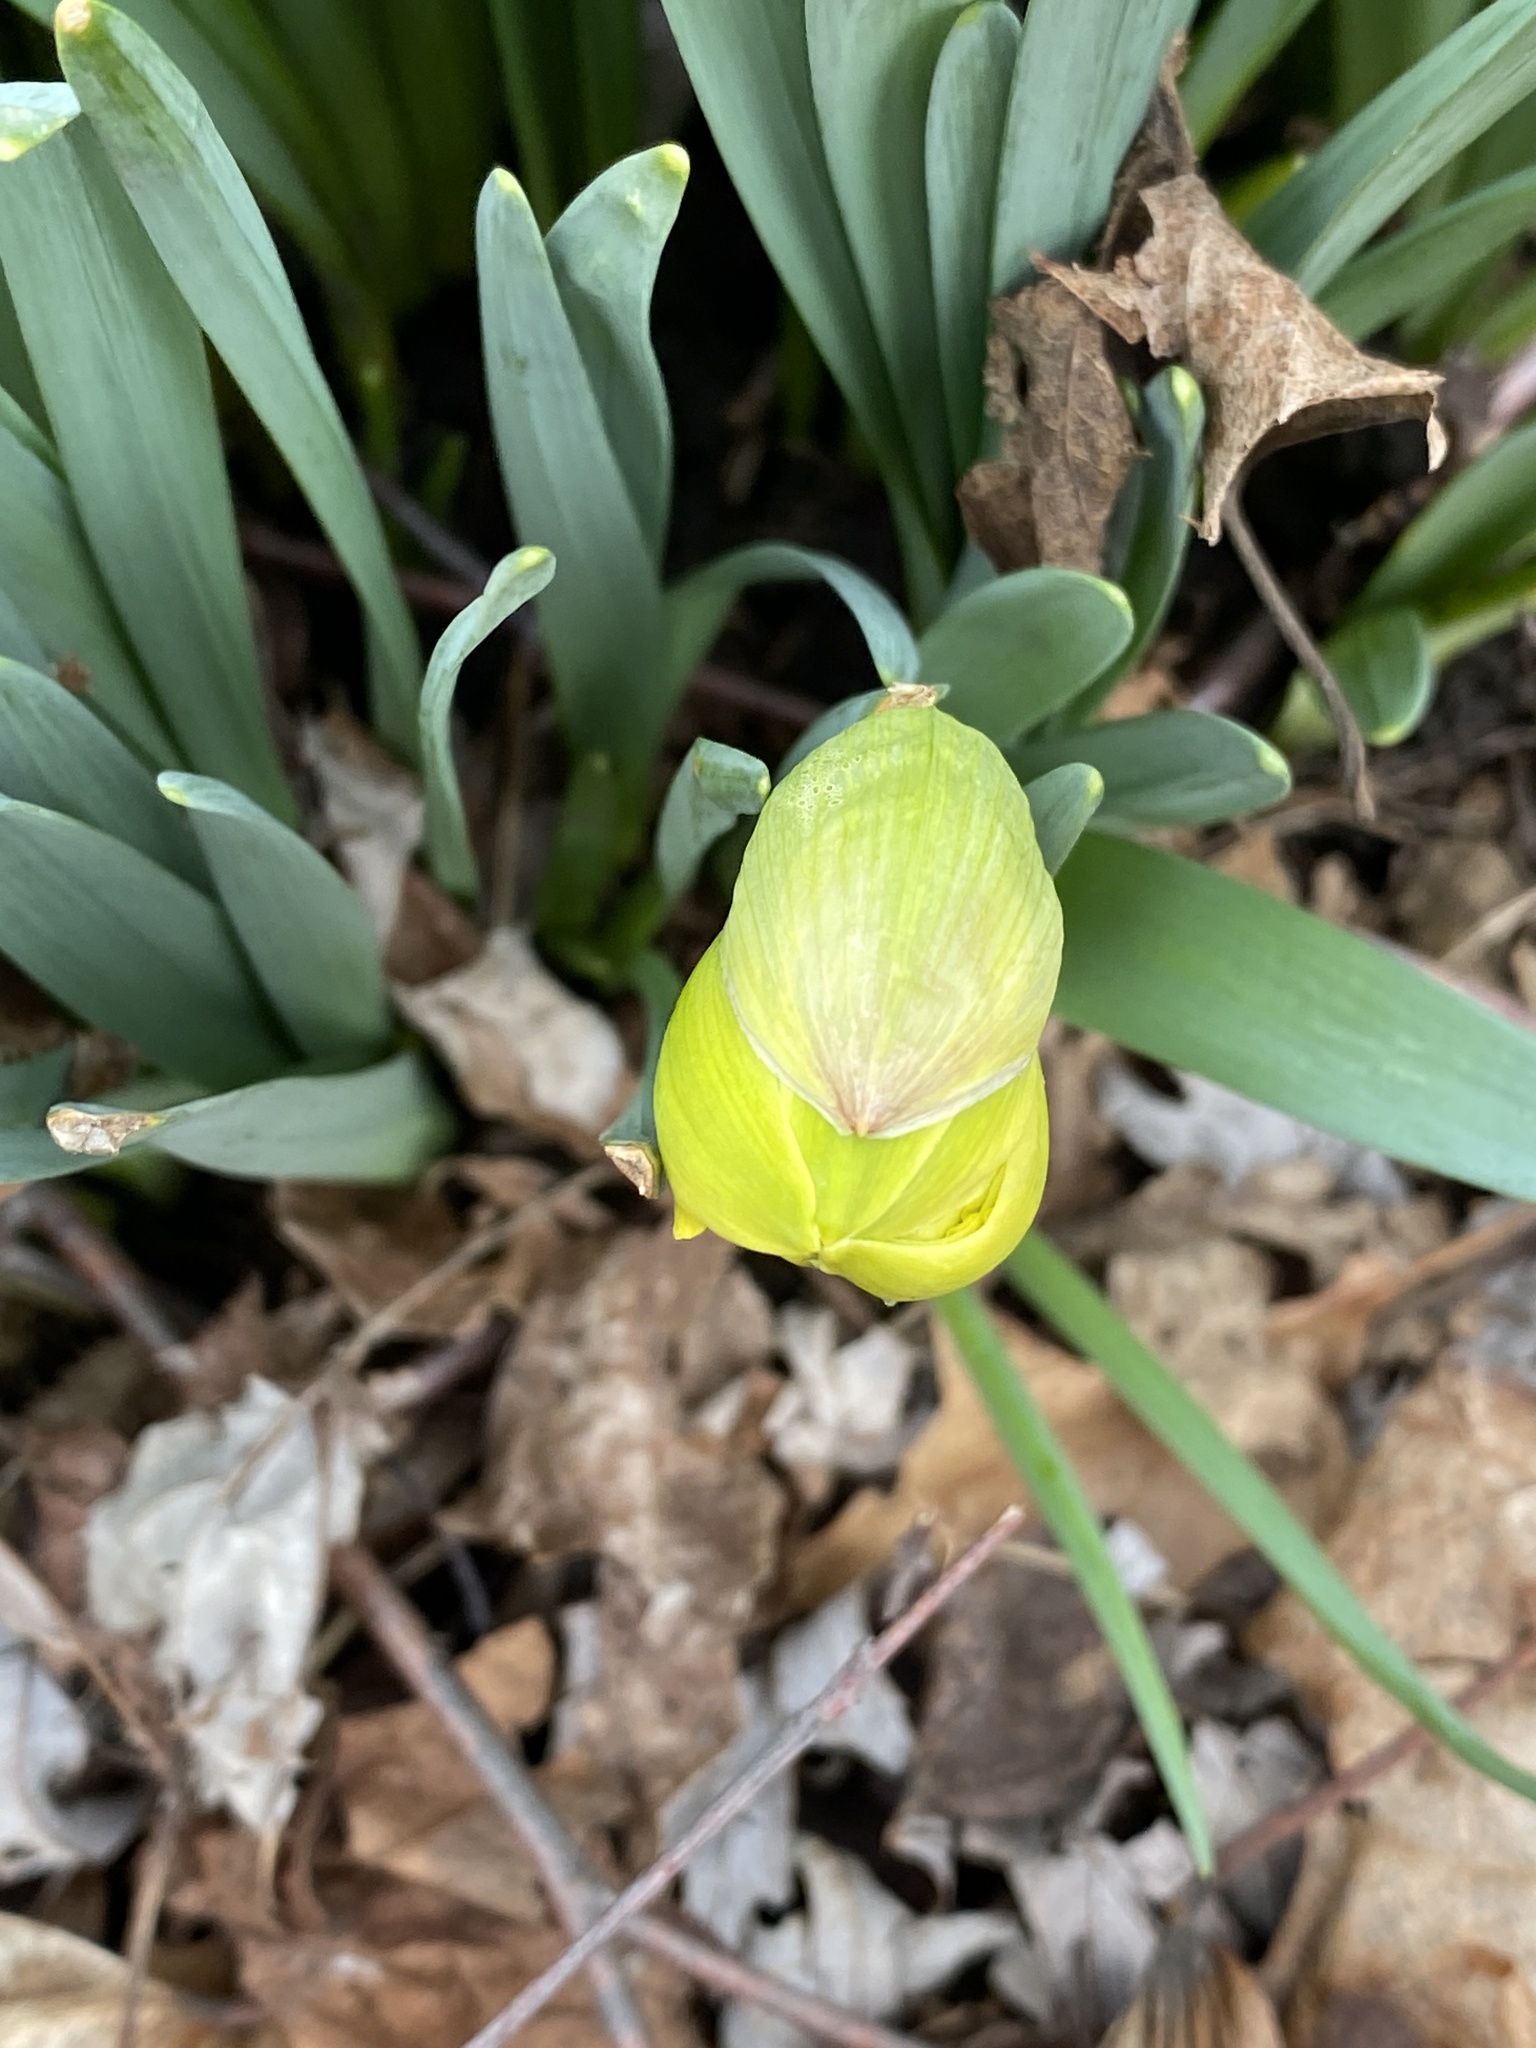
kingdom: Plantae
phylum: Tracheophyta
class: Liliopsida
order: Asparagales
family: Amaryllidaceae
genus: Narcissus
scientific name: Narcissus
